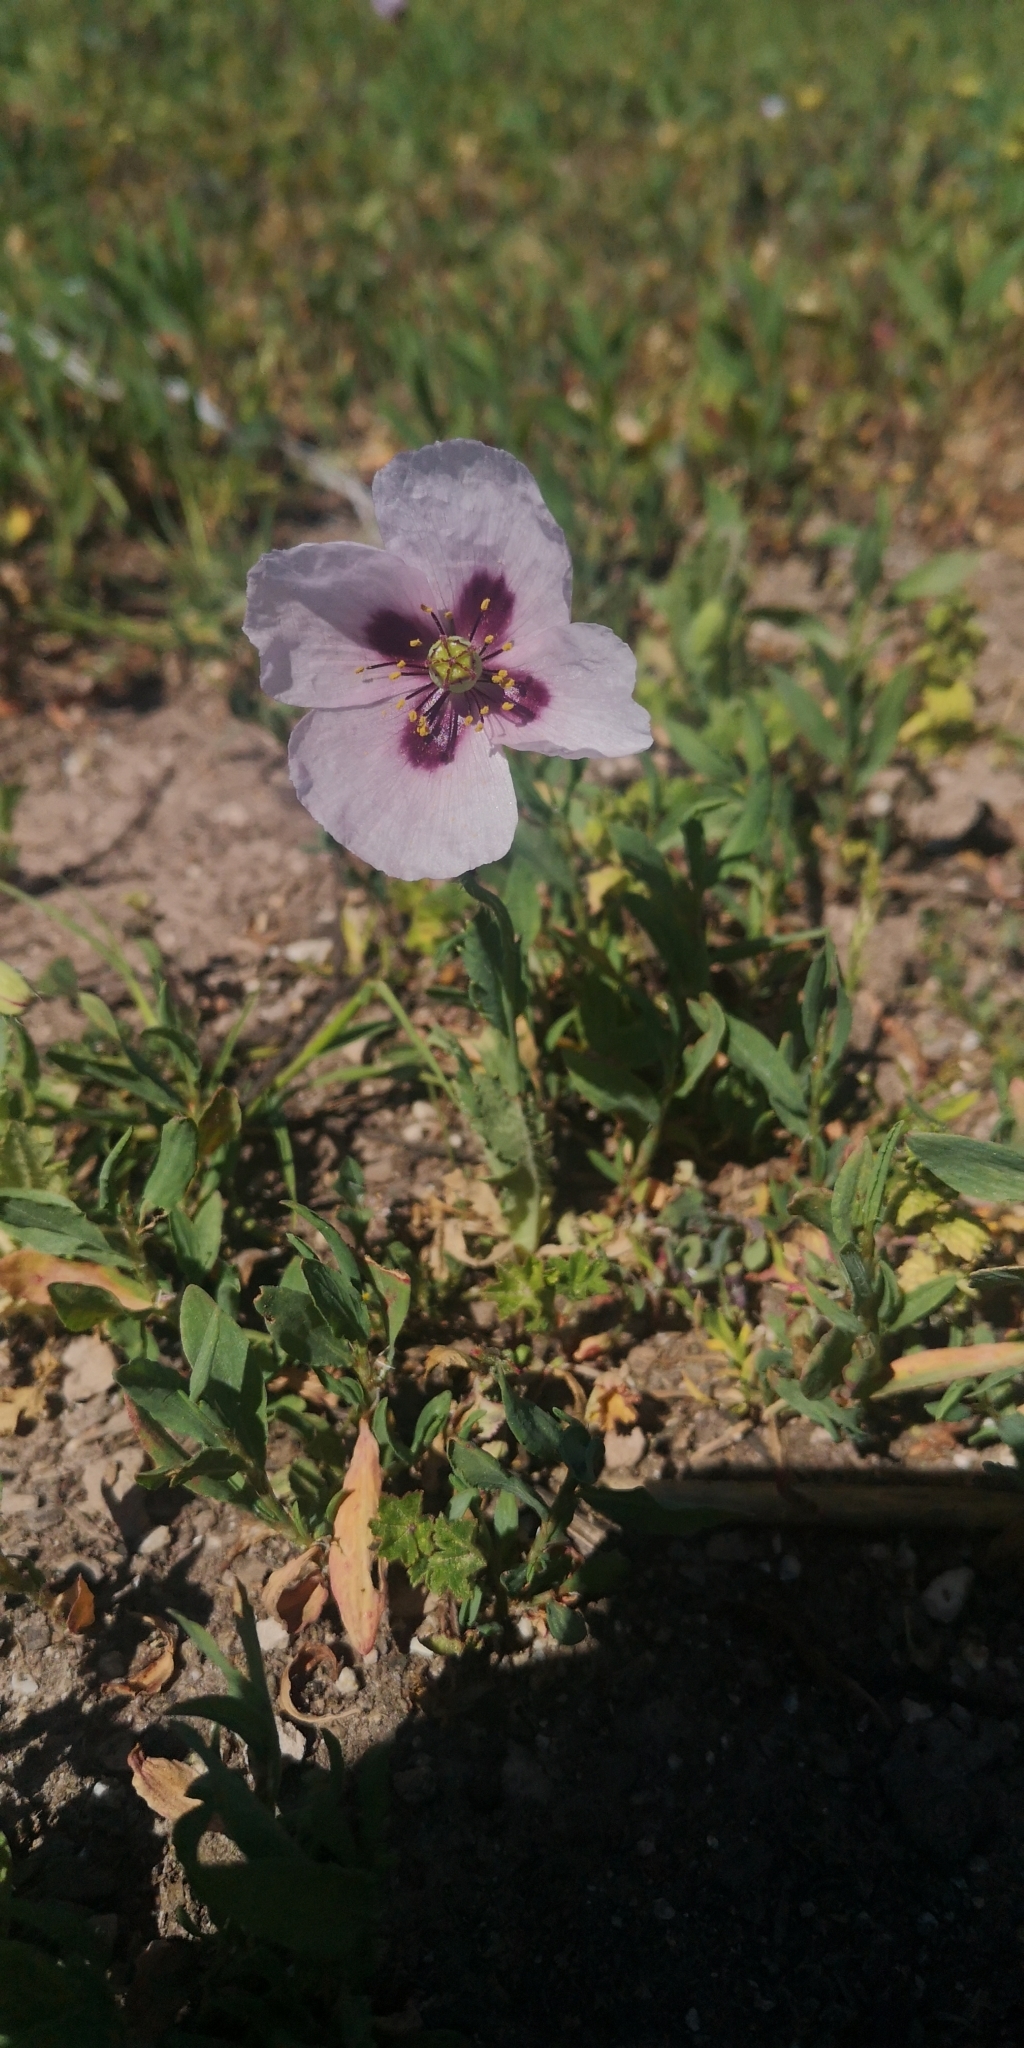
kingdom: Plantae
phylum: Tracheophyta
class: Magnoliopsida
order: Ranunculales
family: Papaveraceae
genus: Papaver
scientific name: Papaver somniferum
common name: Opium poppy
